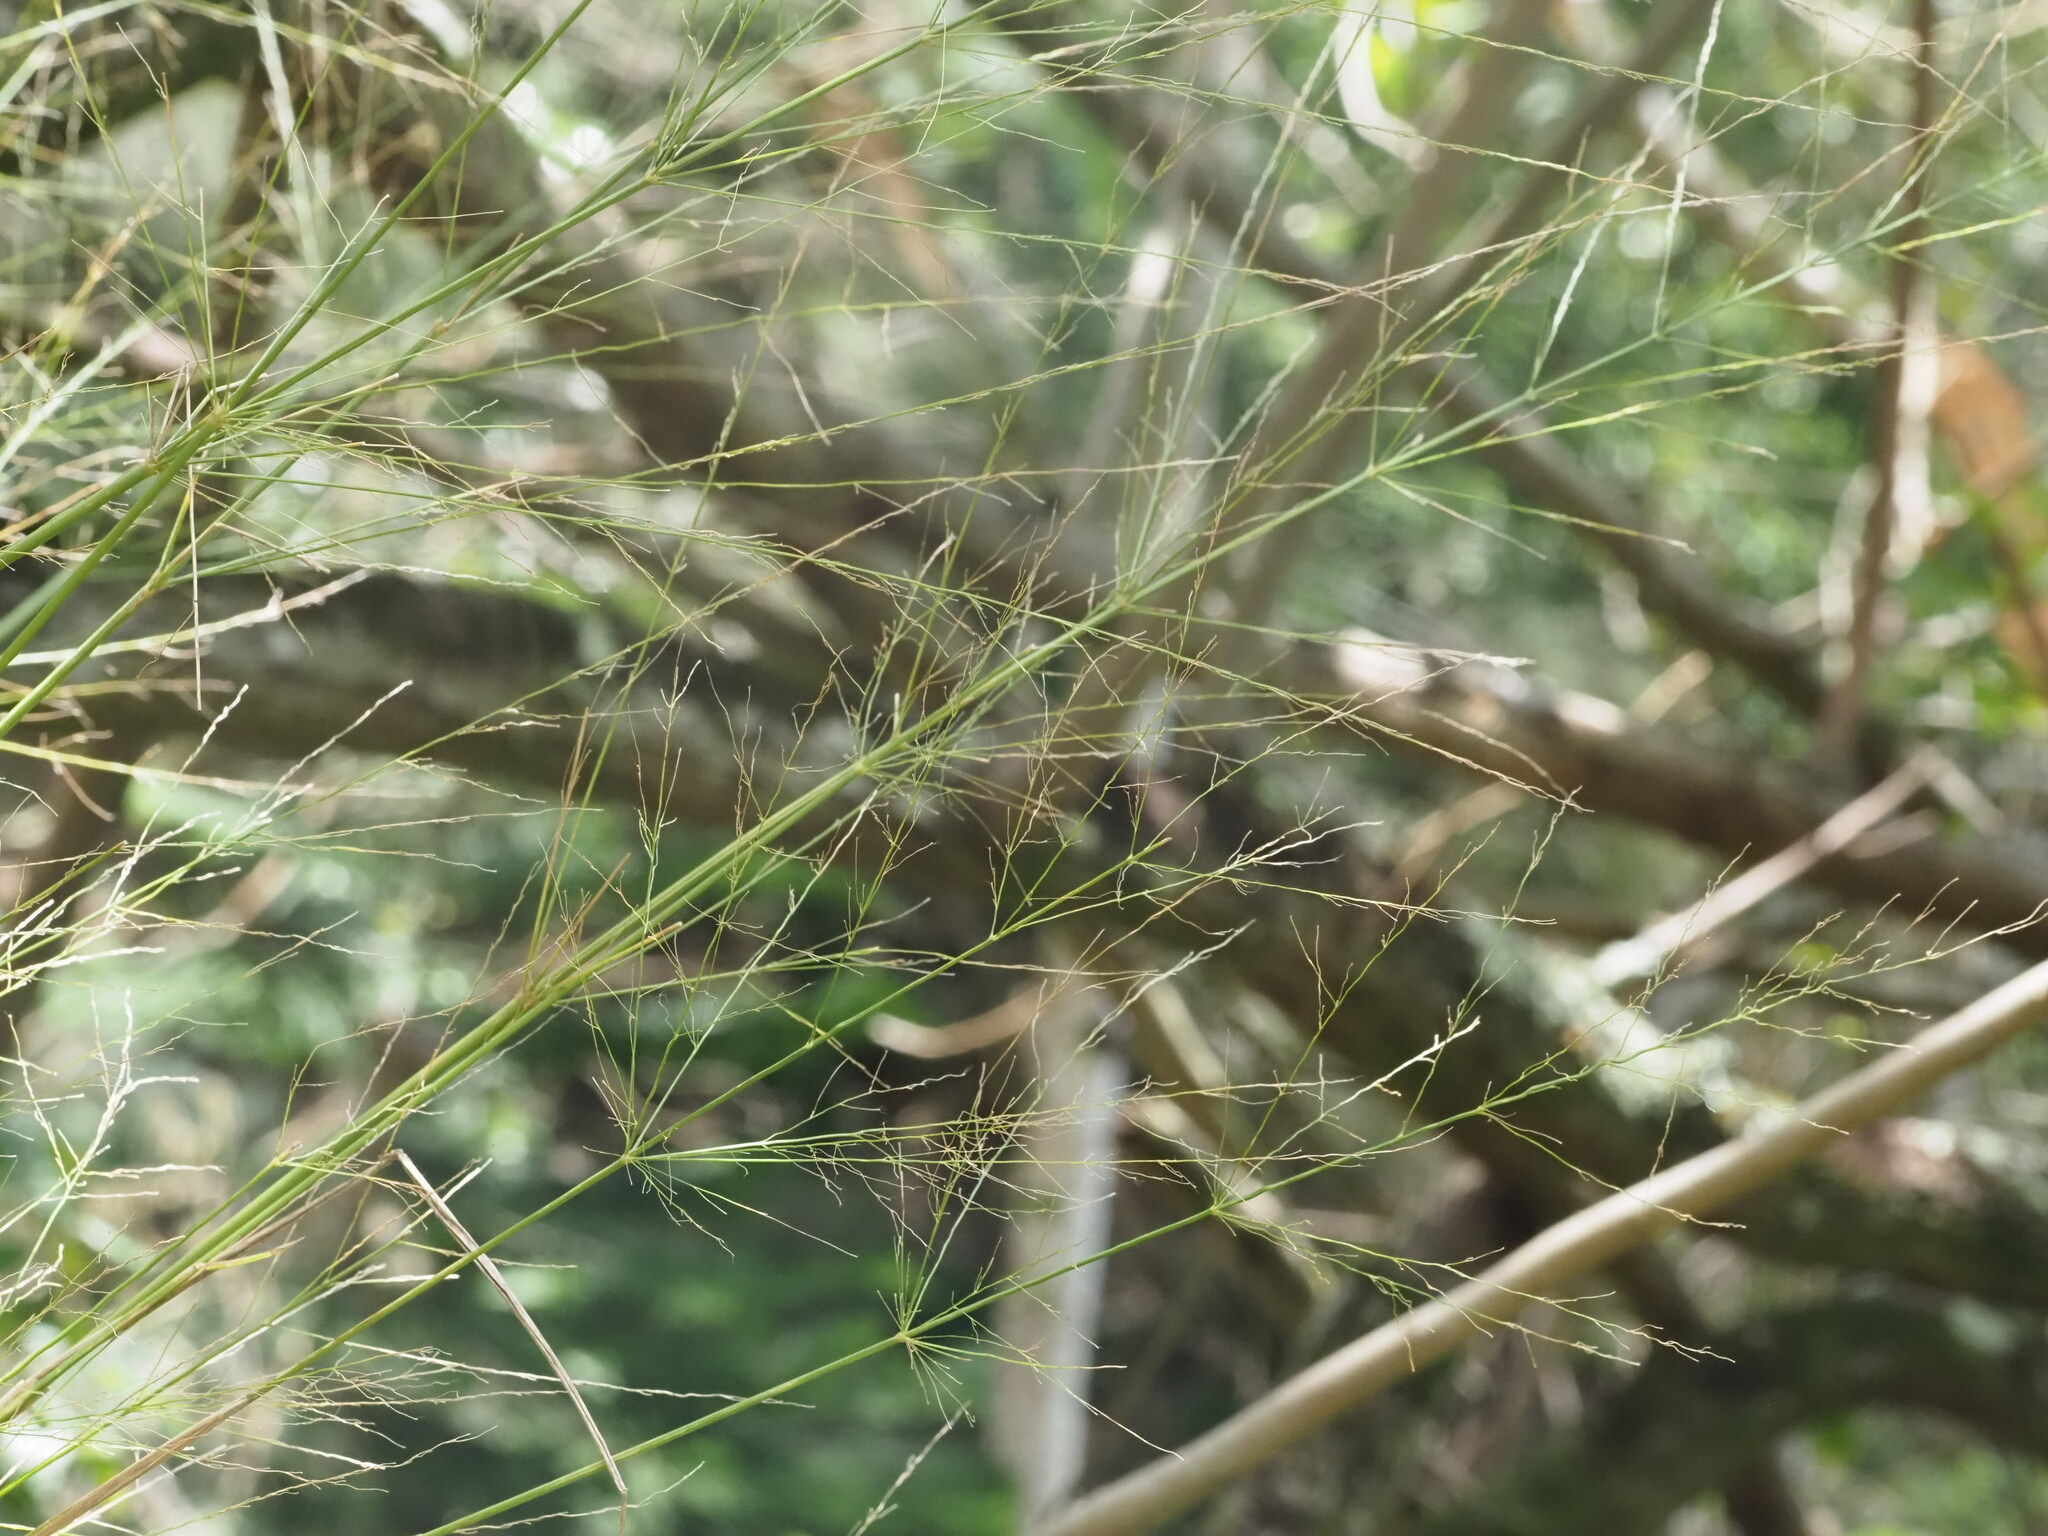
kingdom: Plantae
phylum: Tracheophyta
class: Liliopsida
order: Poales
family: Poaceae
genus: Megathyrsus
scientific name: Megathyrsus maximus
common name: Guineagrass
